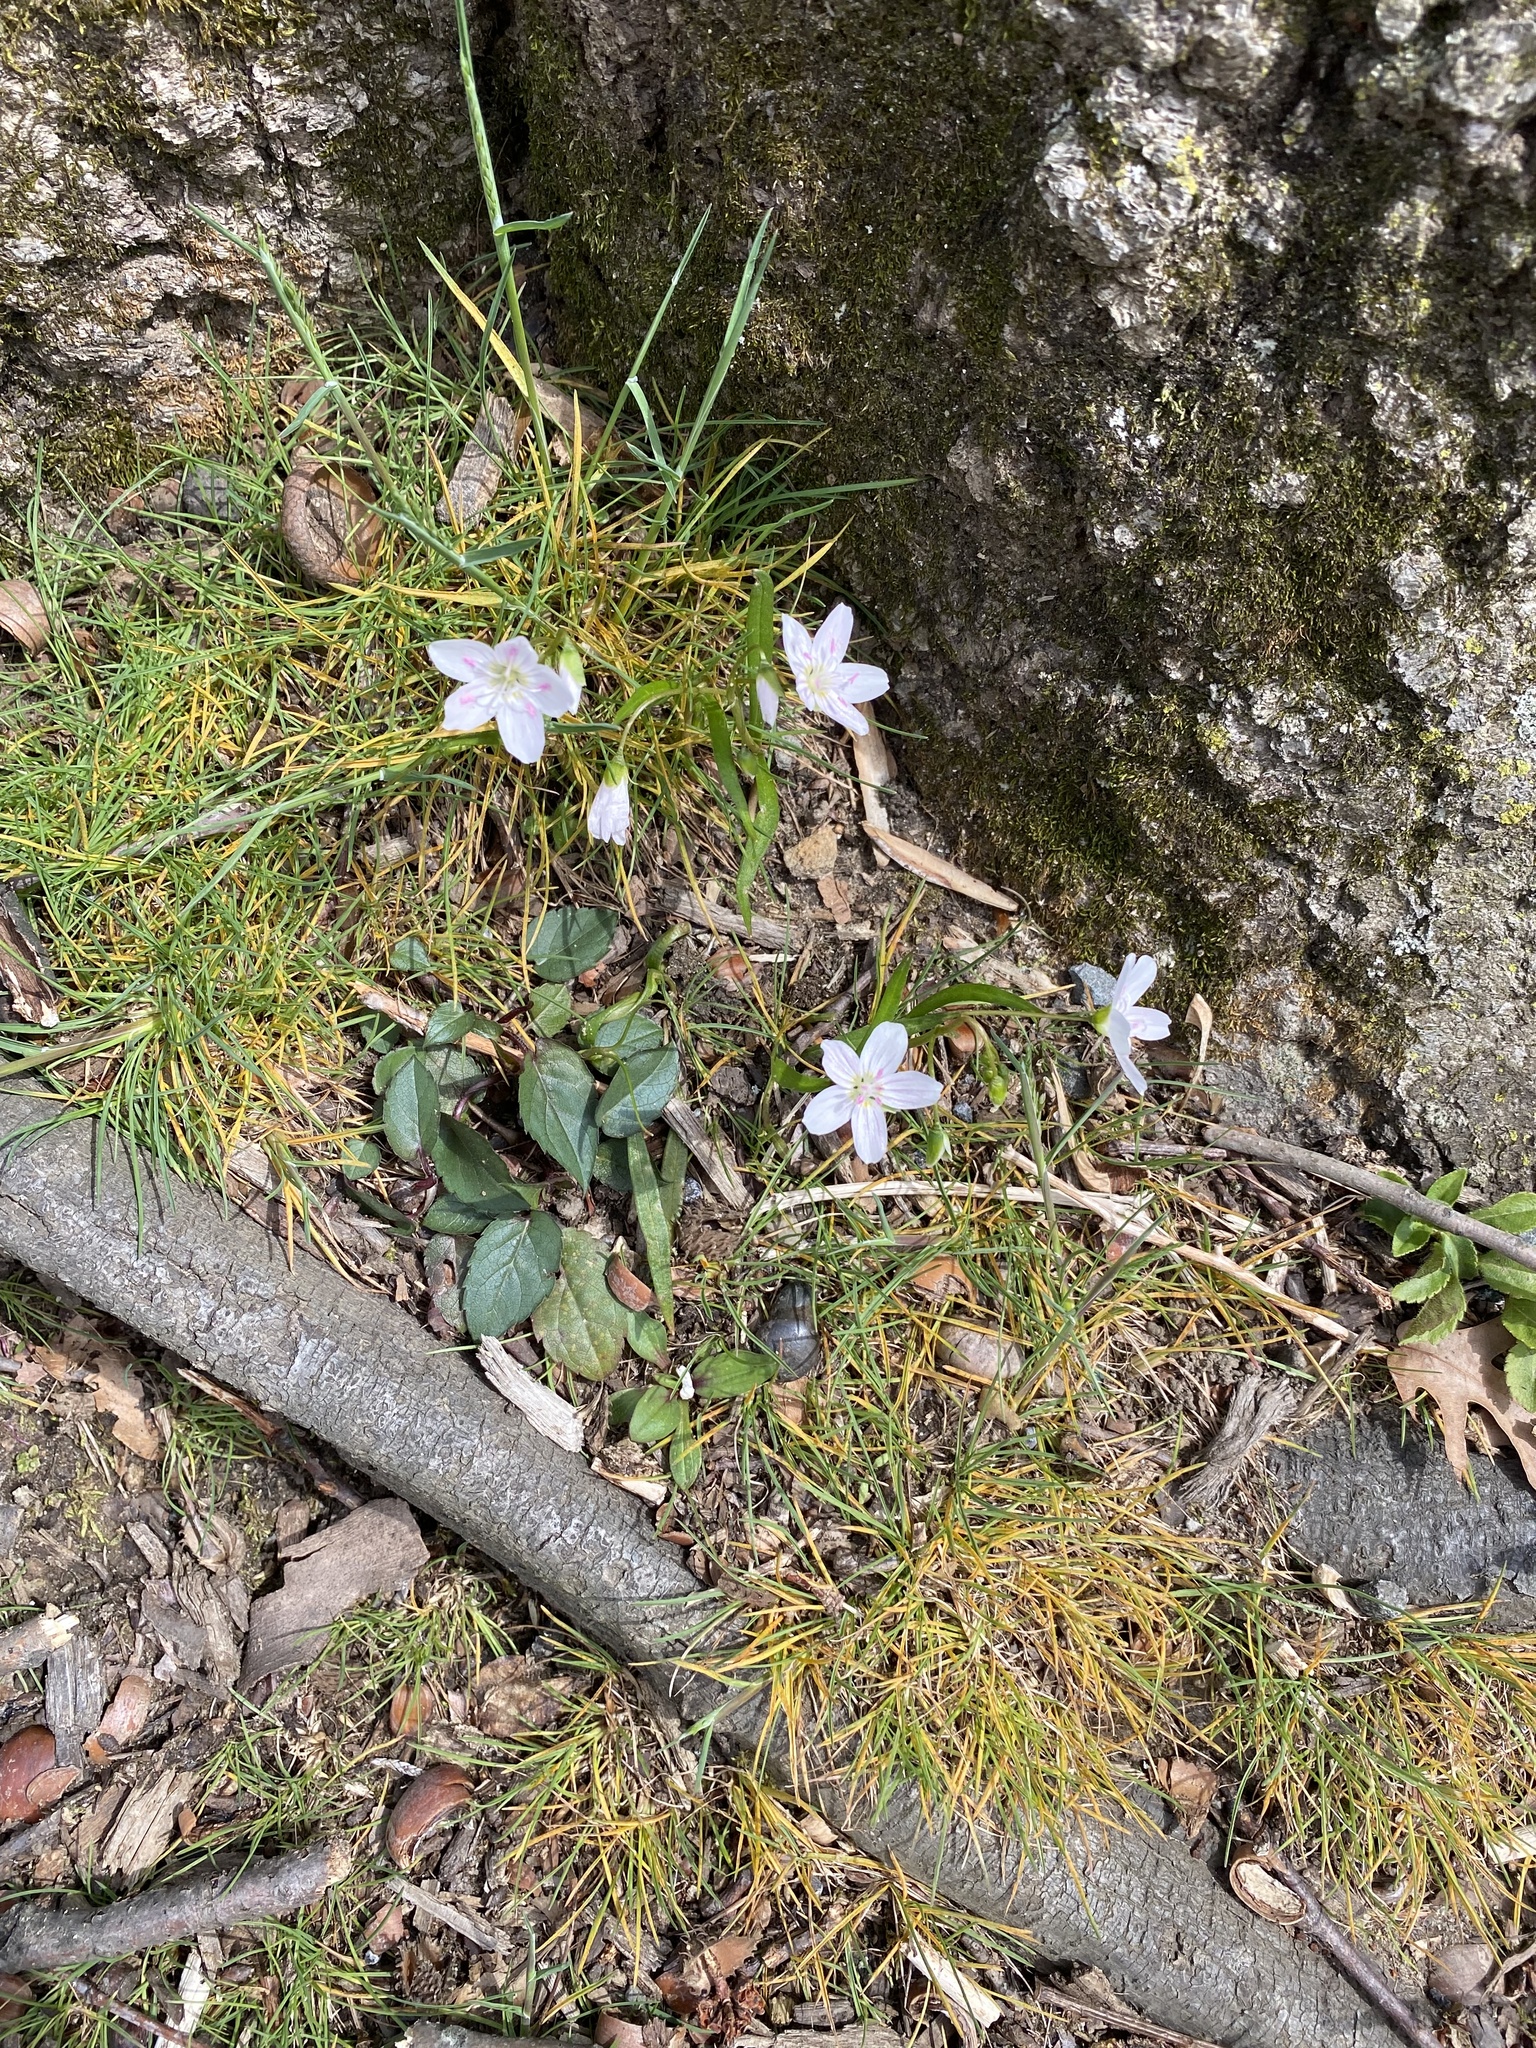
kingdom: Plantae
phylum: Tracheophyta
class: Magnoliopsida
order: Caryophyllales
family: Montiaceae
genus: Claytonia
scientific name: Claytonia virginica
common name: Virginia springbeauty
